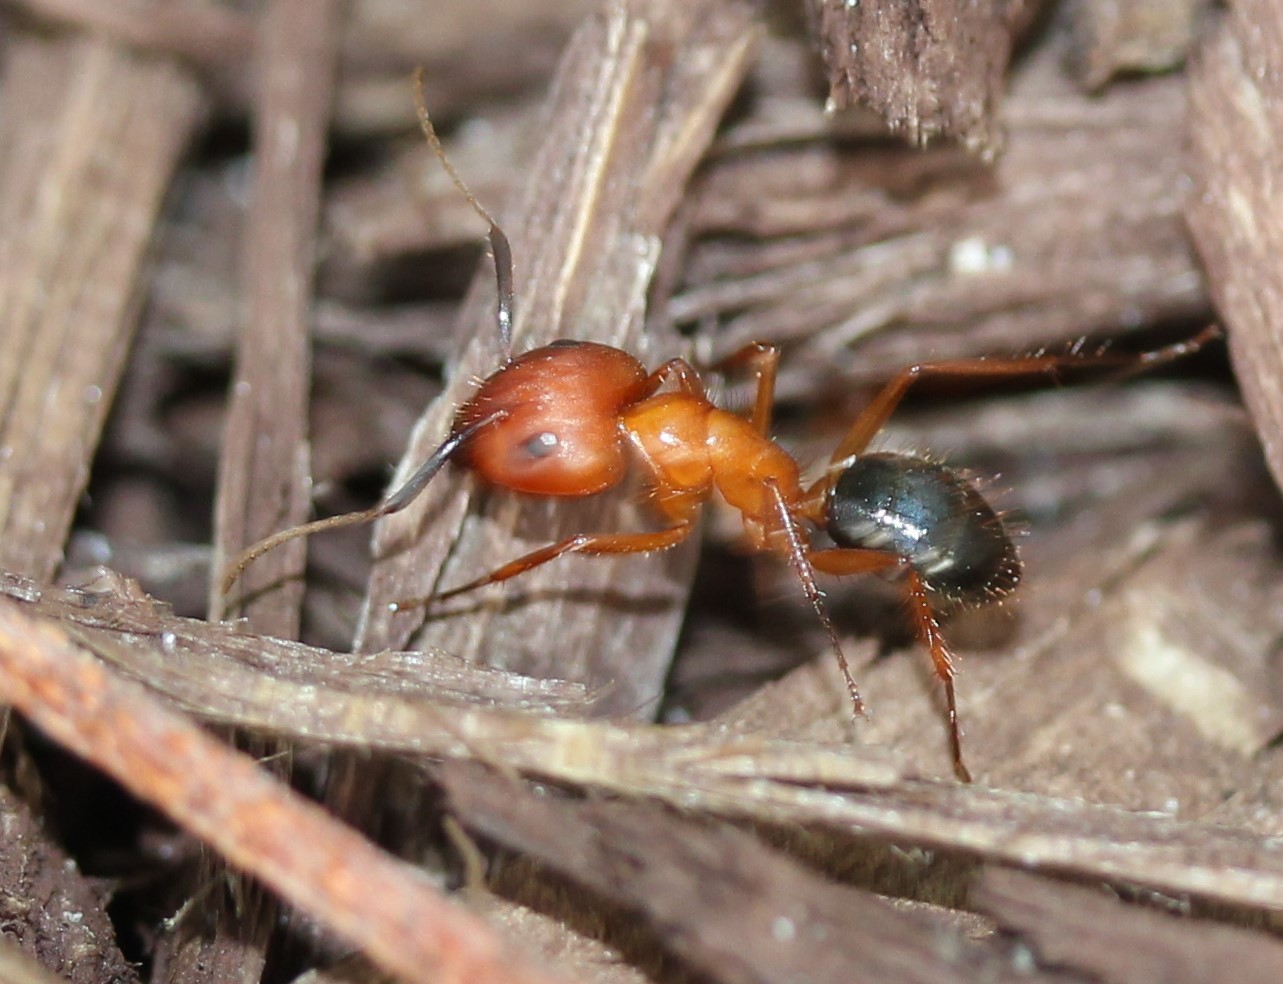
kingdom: Animalia
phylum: Arthropoda
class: Insecta
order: Hymenoptera
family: Formicidae
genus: Camponotus
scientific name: Camponotus floridanus
